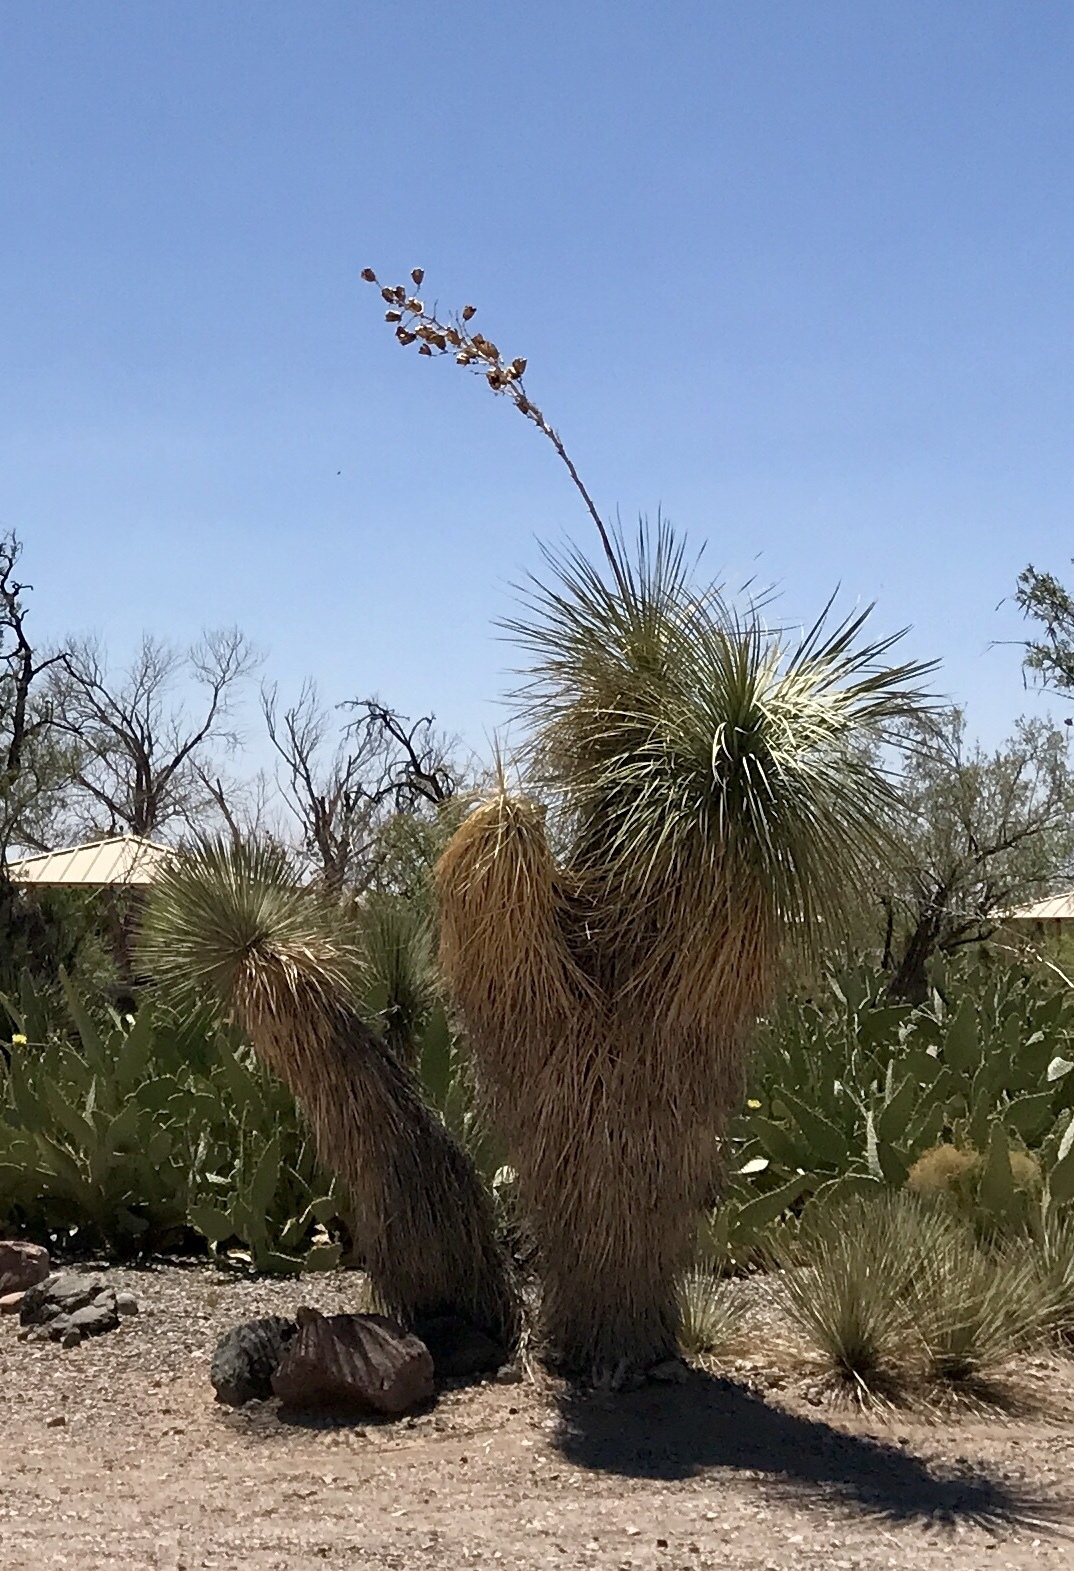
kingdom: Plantae
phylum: Tracheophyta
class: Liliopsida
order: Asparagales
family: Asparagaceae
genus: Yucca
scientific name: Yucca elata
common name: Palmella
